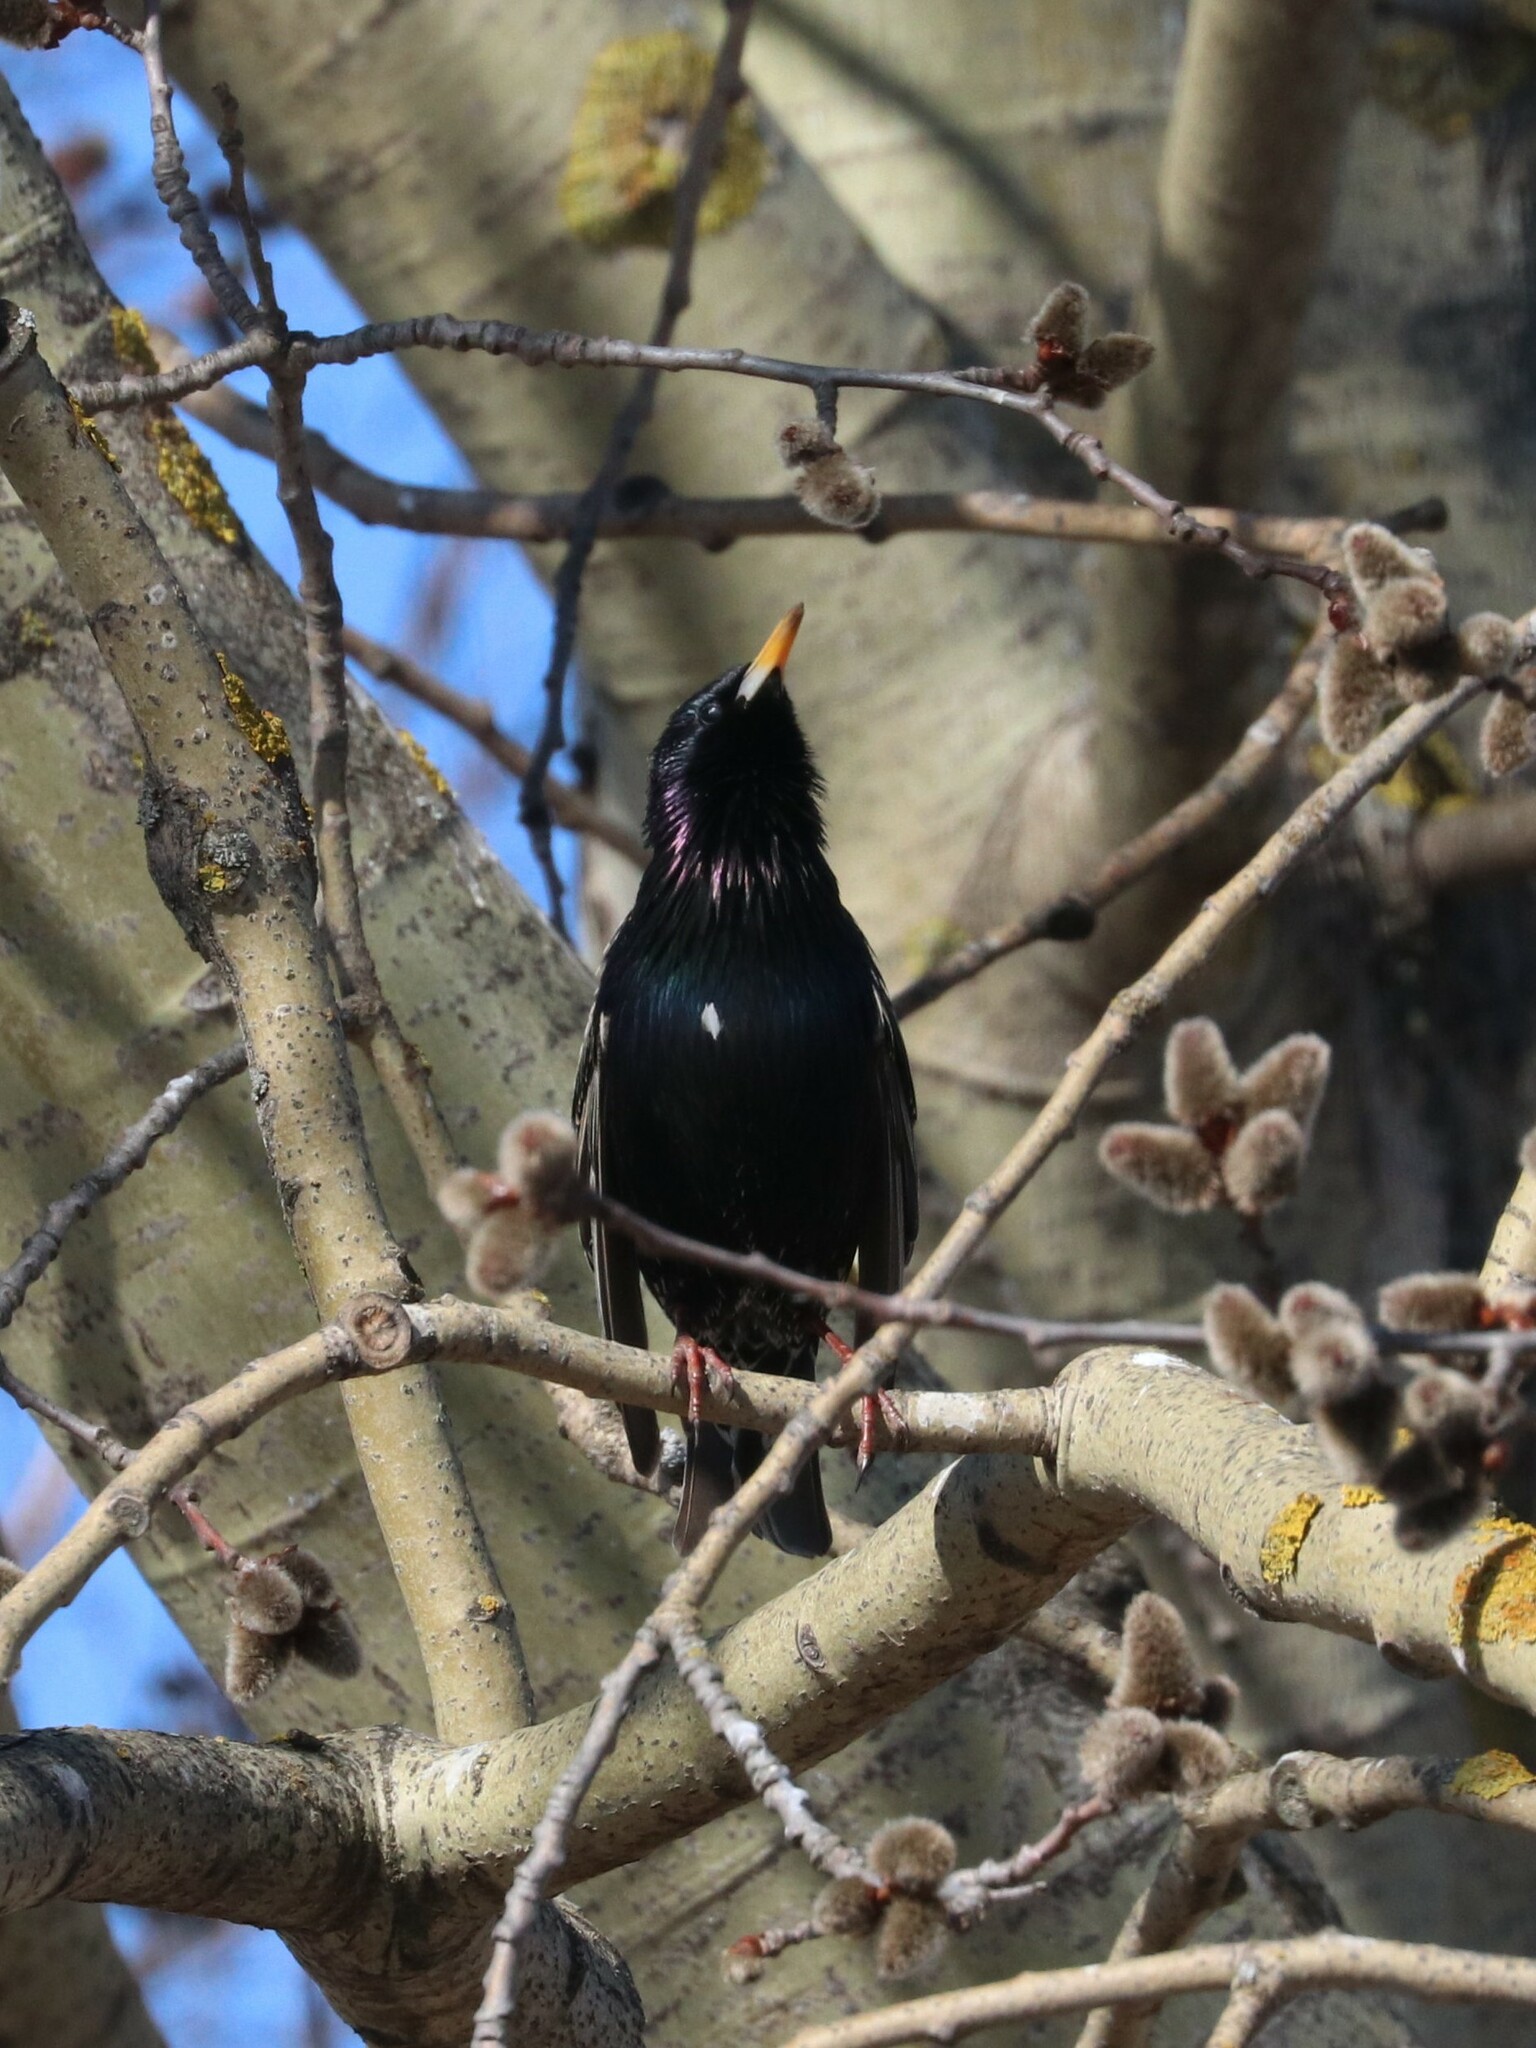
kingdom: Animalia
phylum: Chordata
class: Aves
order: Passeriformes
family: Sturnidae
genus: Sturnus
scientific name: Sturnus vulgaris
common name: Common starling
